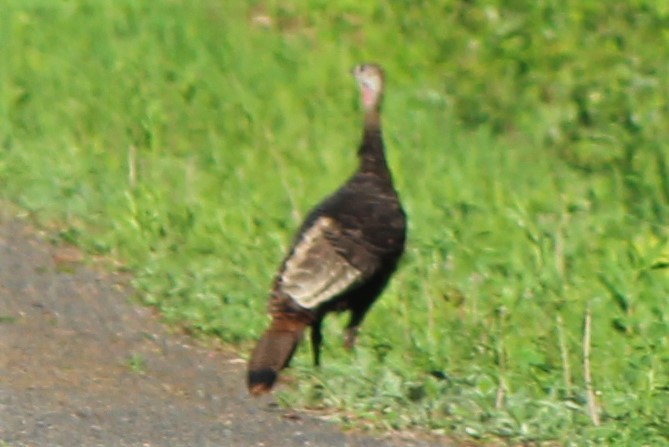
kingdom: Animalia
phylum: Chordata
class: Aves
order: Galliformes
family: Phasianidae
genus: Meleagris
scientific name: Meleagris gallopavo
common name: Wild turkey
